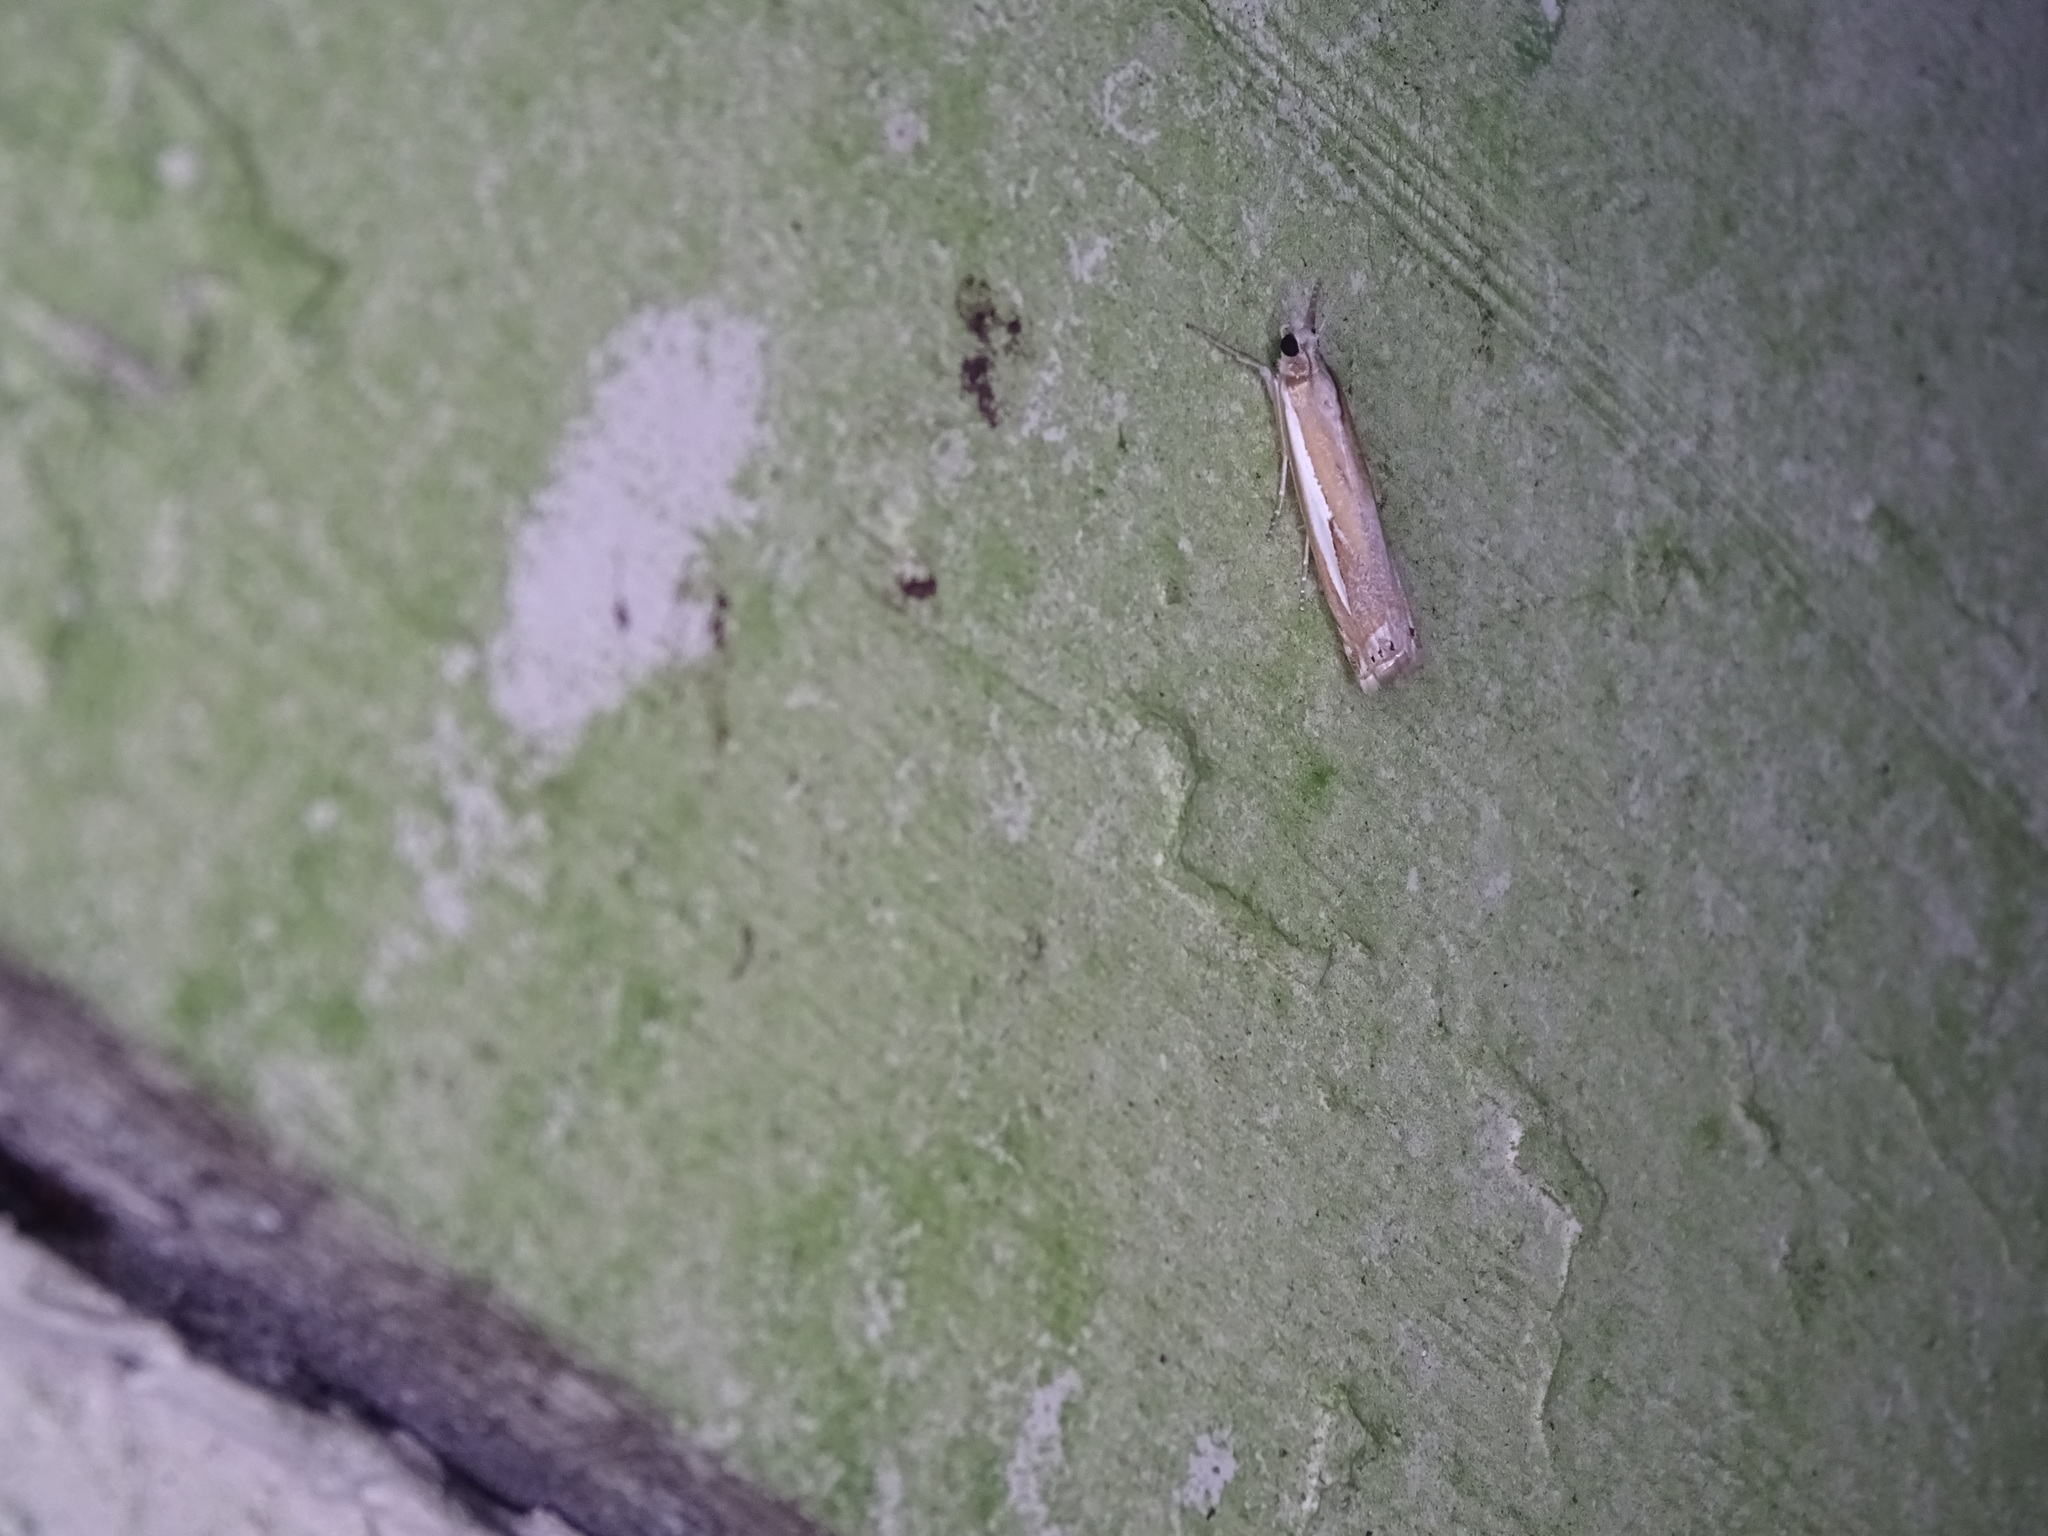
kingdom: Animalia
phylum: Arthropoda
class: Insecta
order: Lepidoptera
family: Crambidae
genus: Crambus
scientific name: Crambus praefectellus
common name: Common grass-veneer
